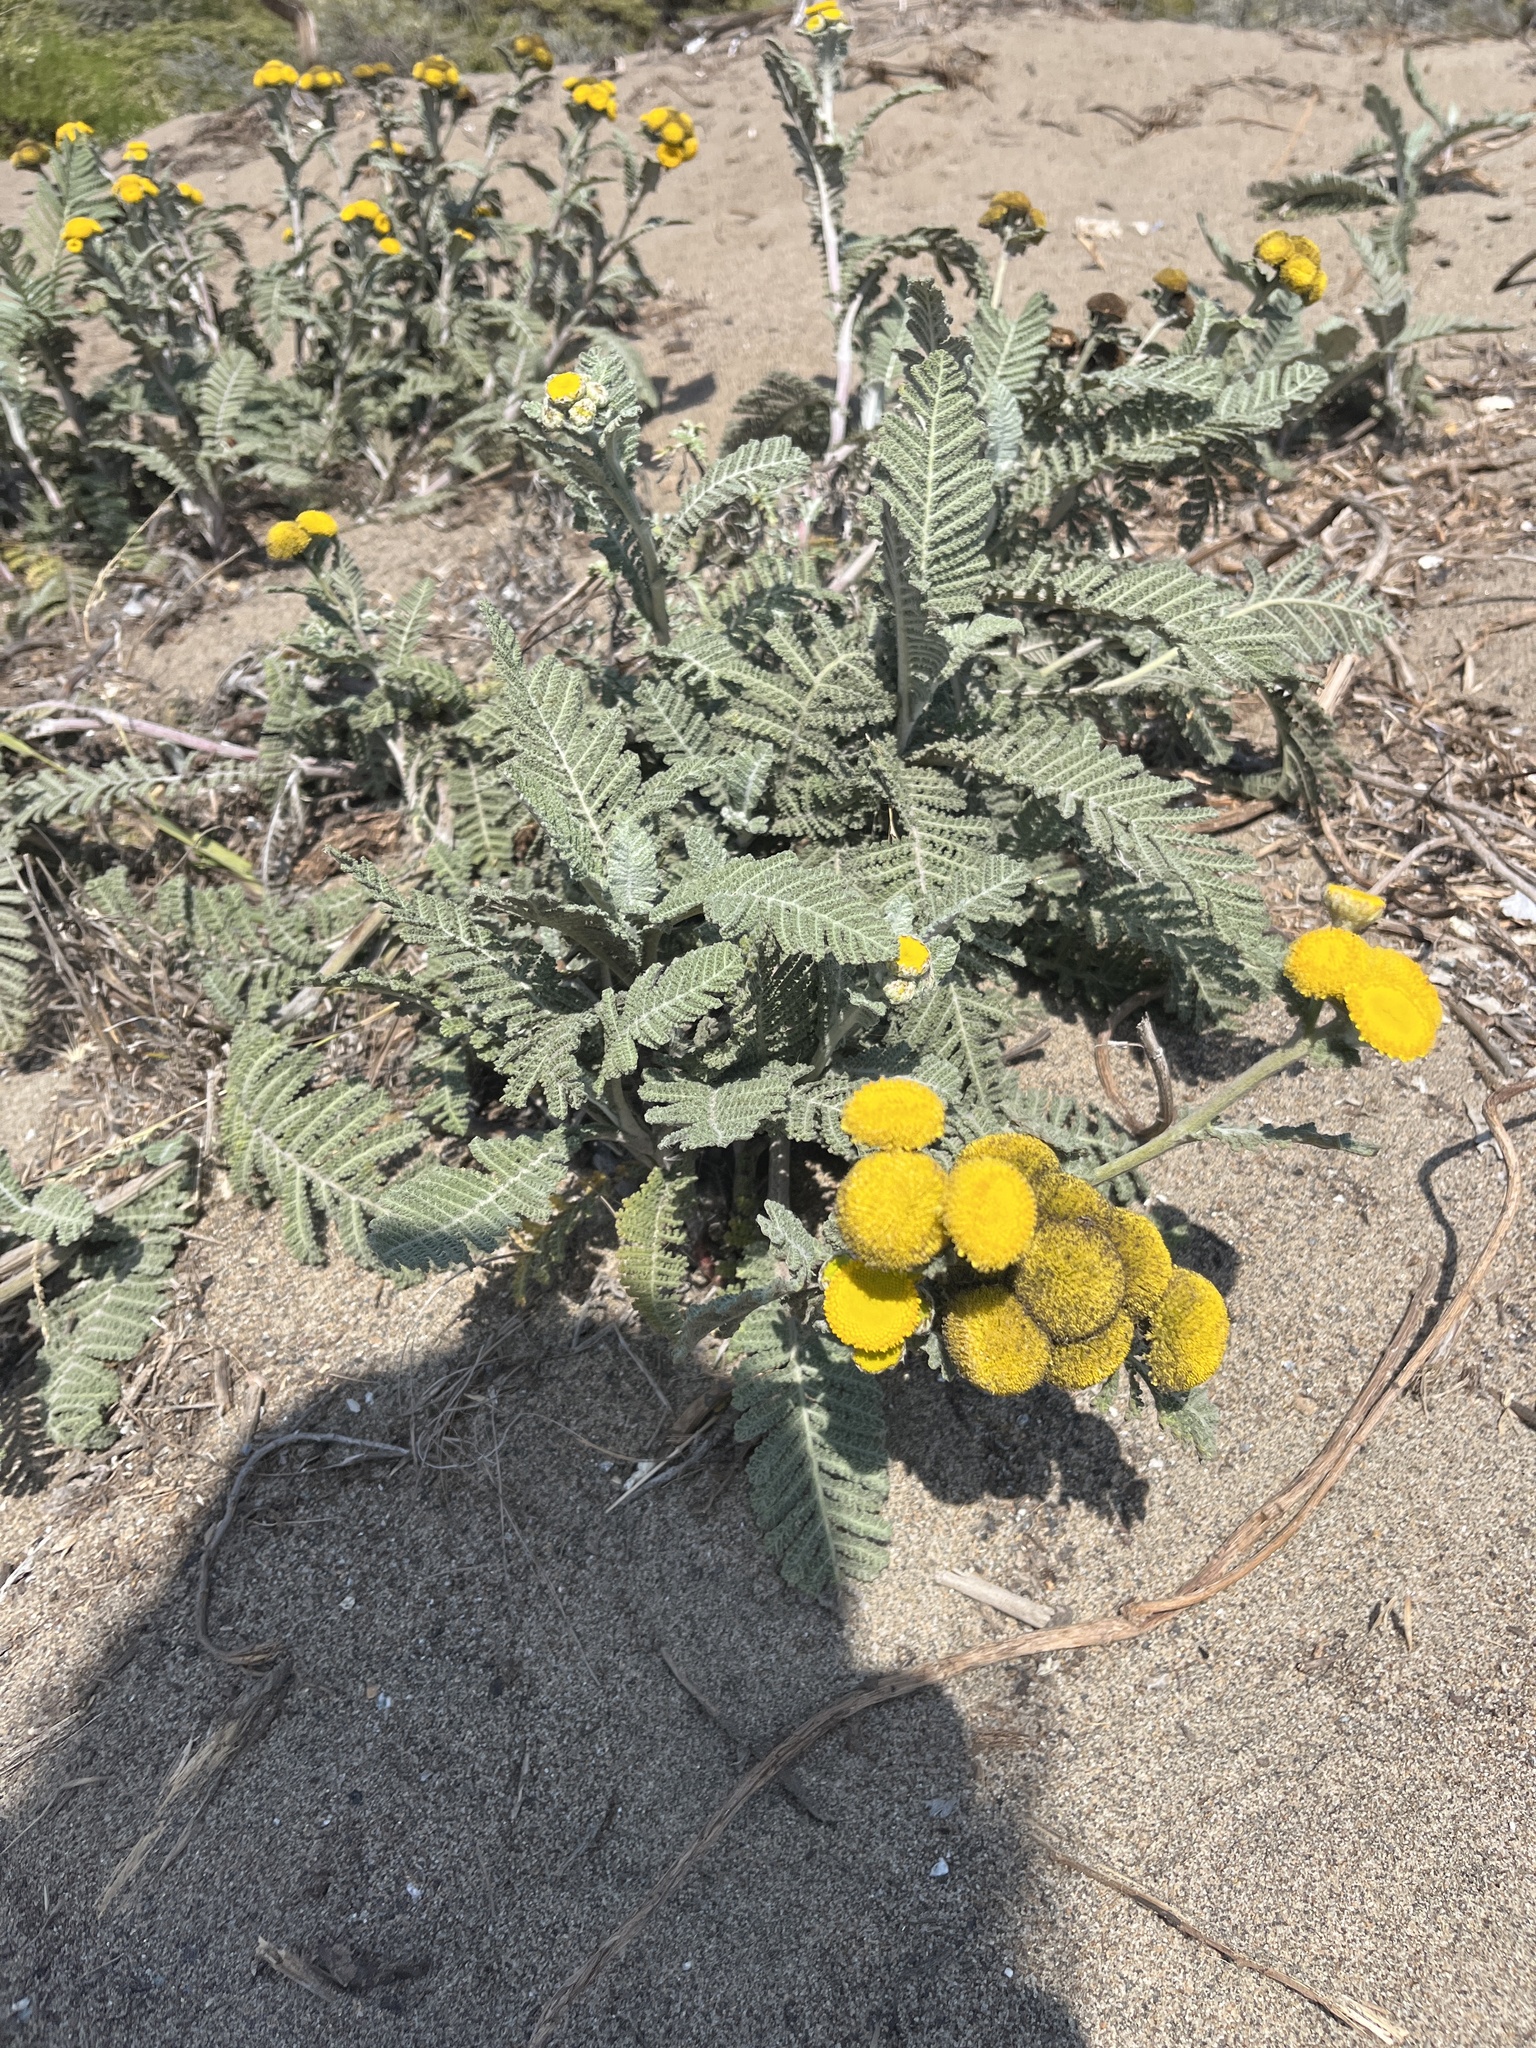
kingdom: Plantae
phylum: Tracheophyta
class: Magnoliopsida
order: Asterales
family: Asteraceae
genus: Tanacetum
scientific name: Tanacetum bipinnatum
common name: Dwarf tansy
